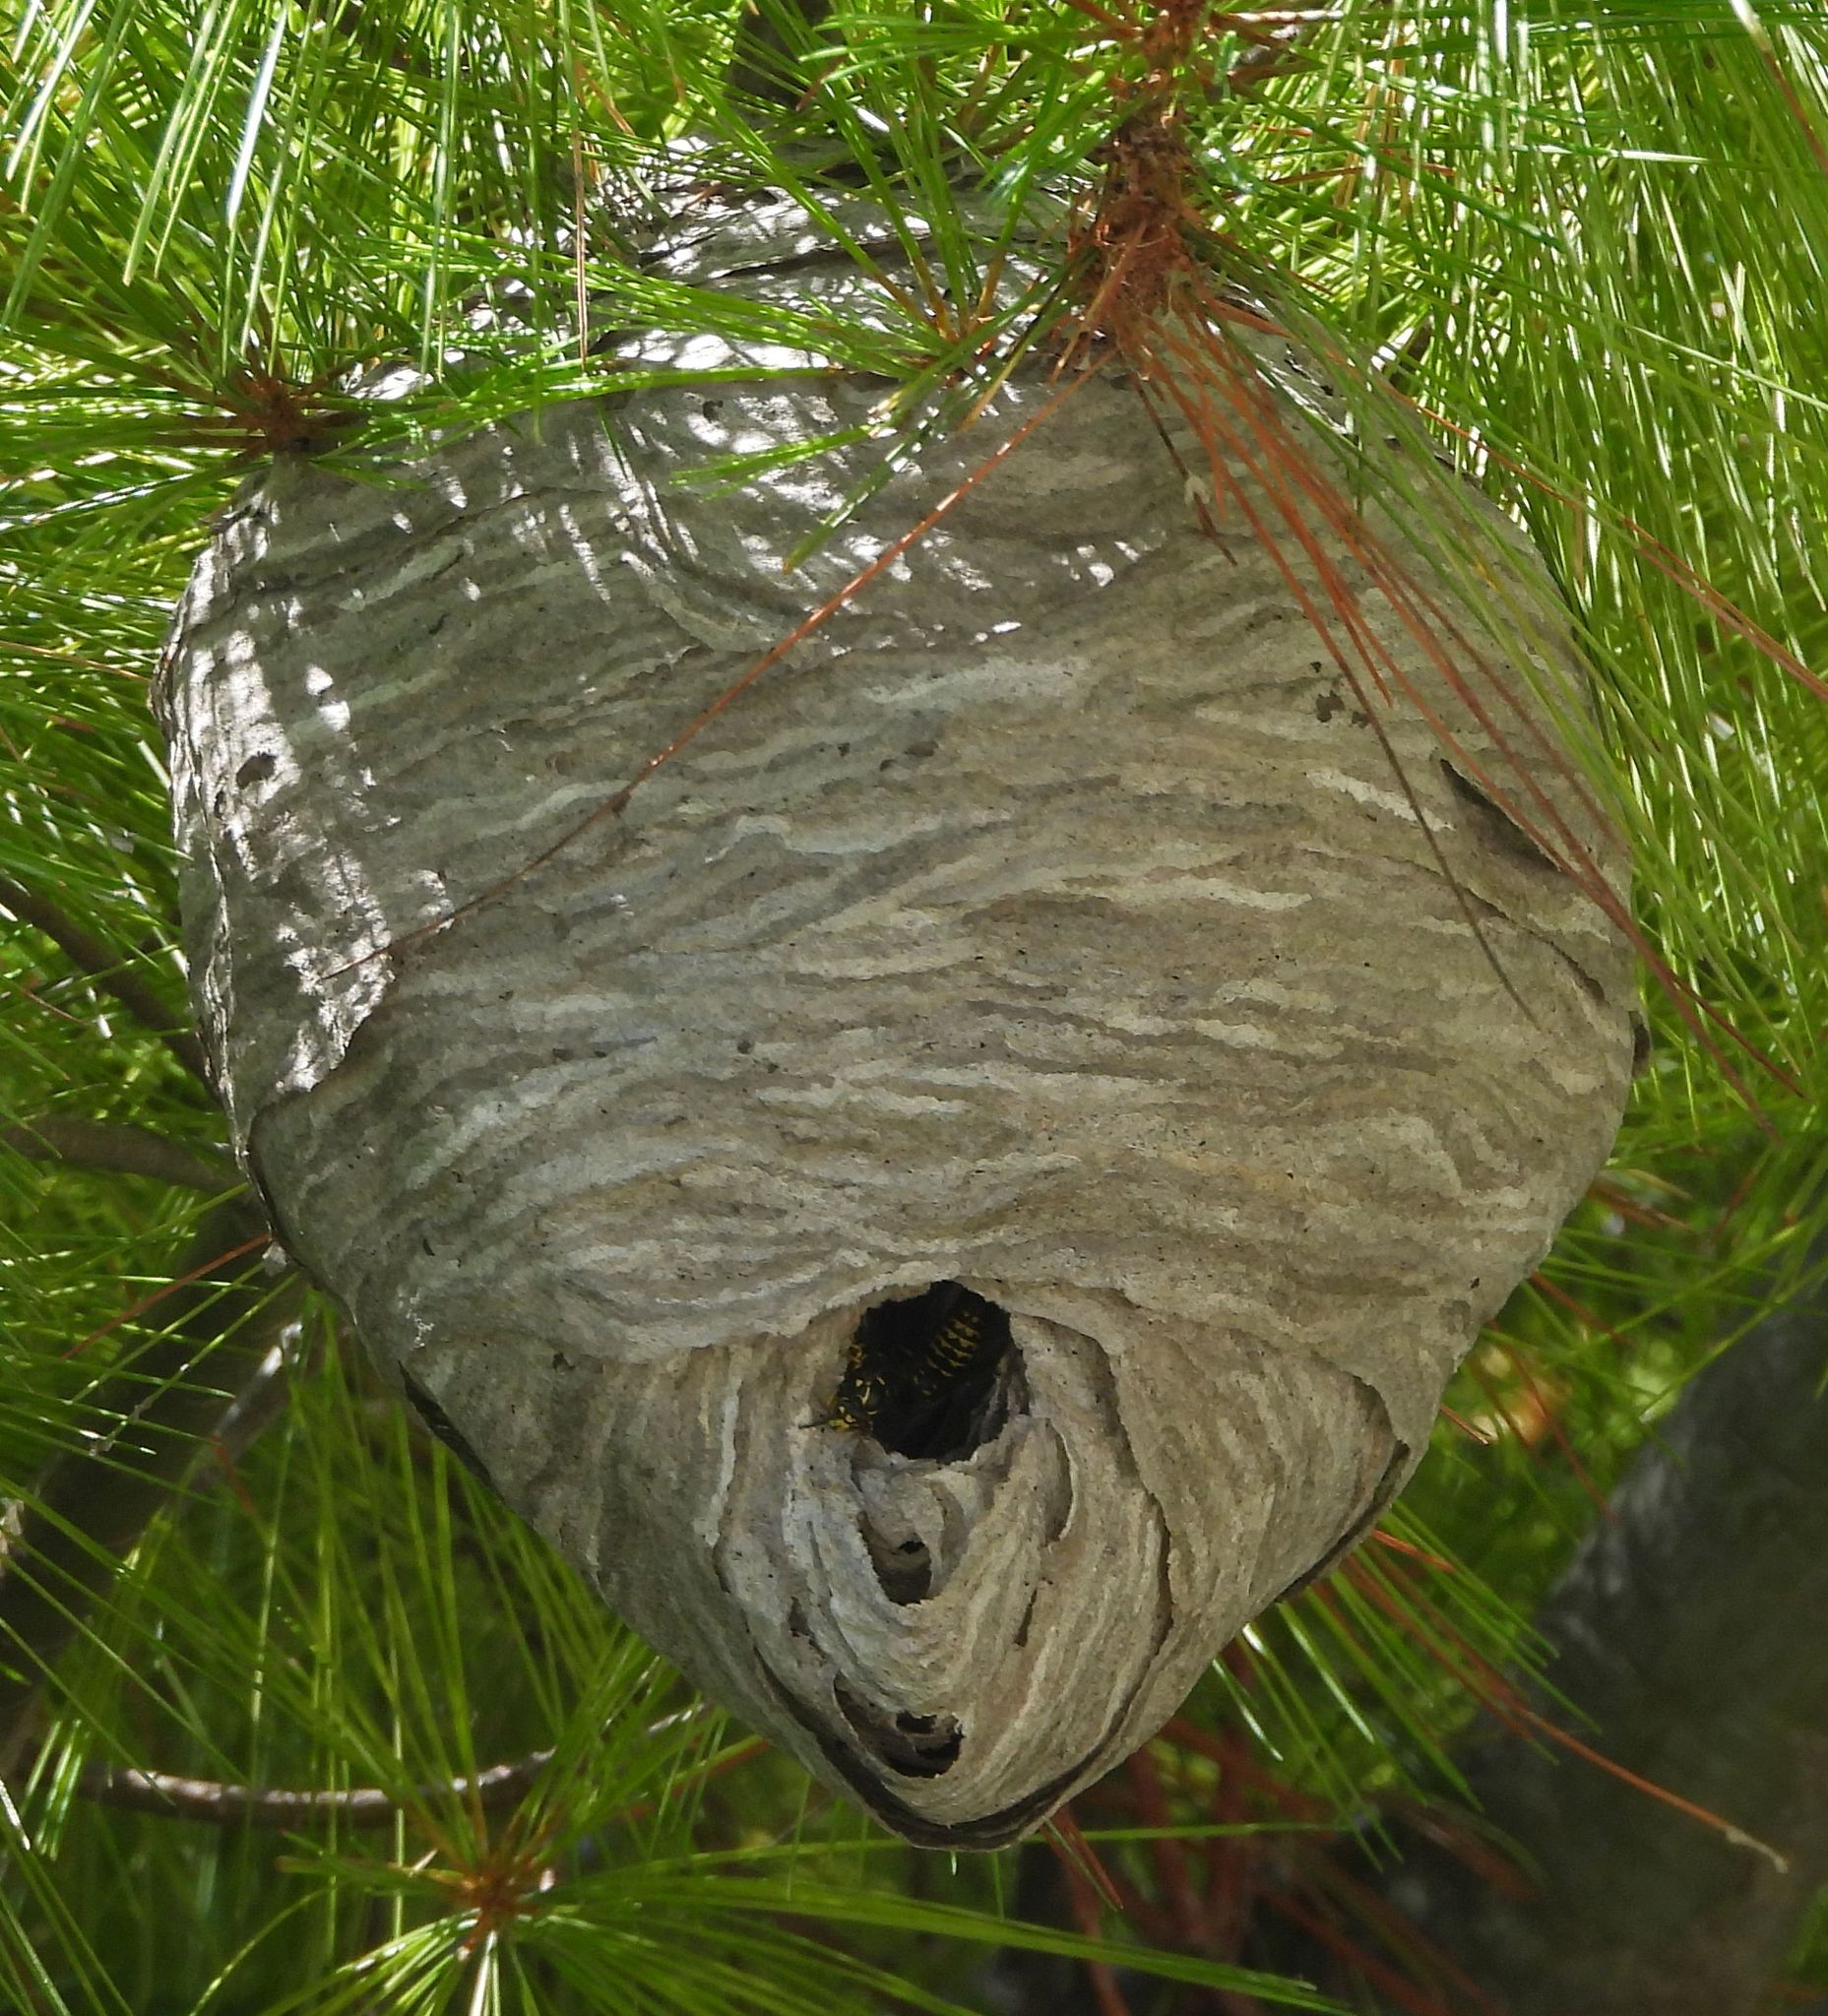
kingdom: Animalia
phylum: Arthropoda
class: Insecta
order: Hymenoptera
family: Vespidae
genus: Dolichovespula
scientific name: Dolichovespula arenaria
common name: Aerial yellowjacket
